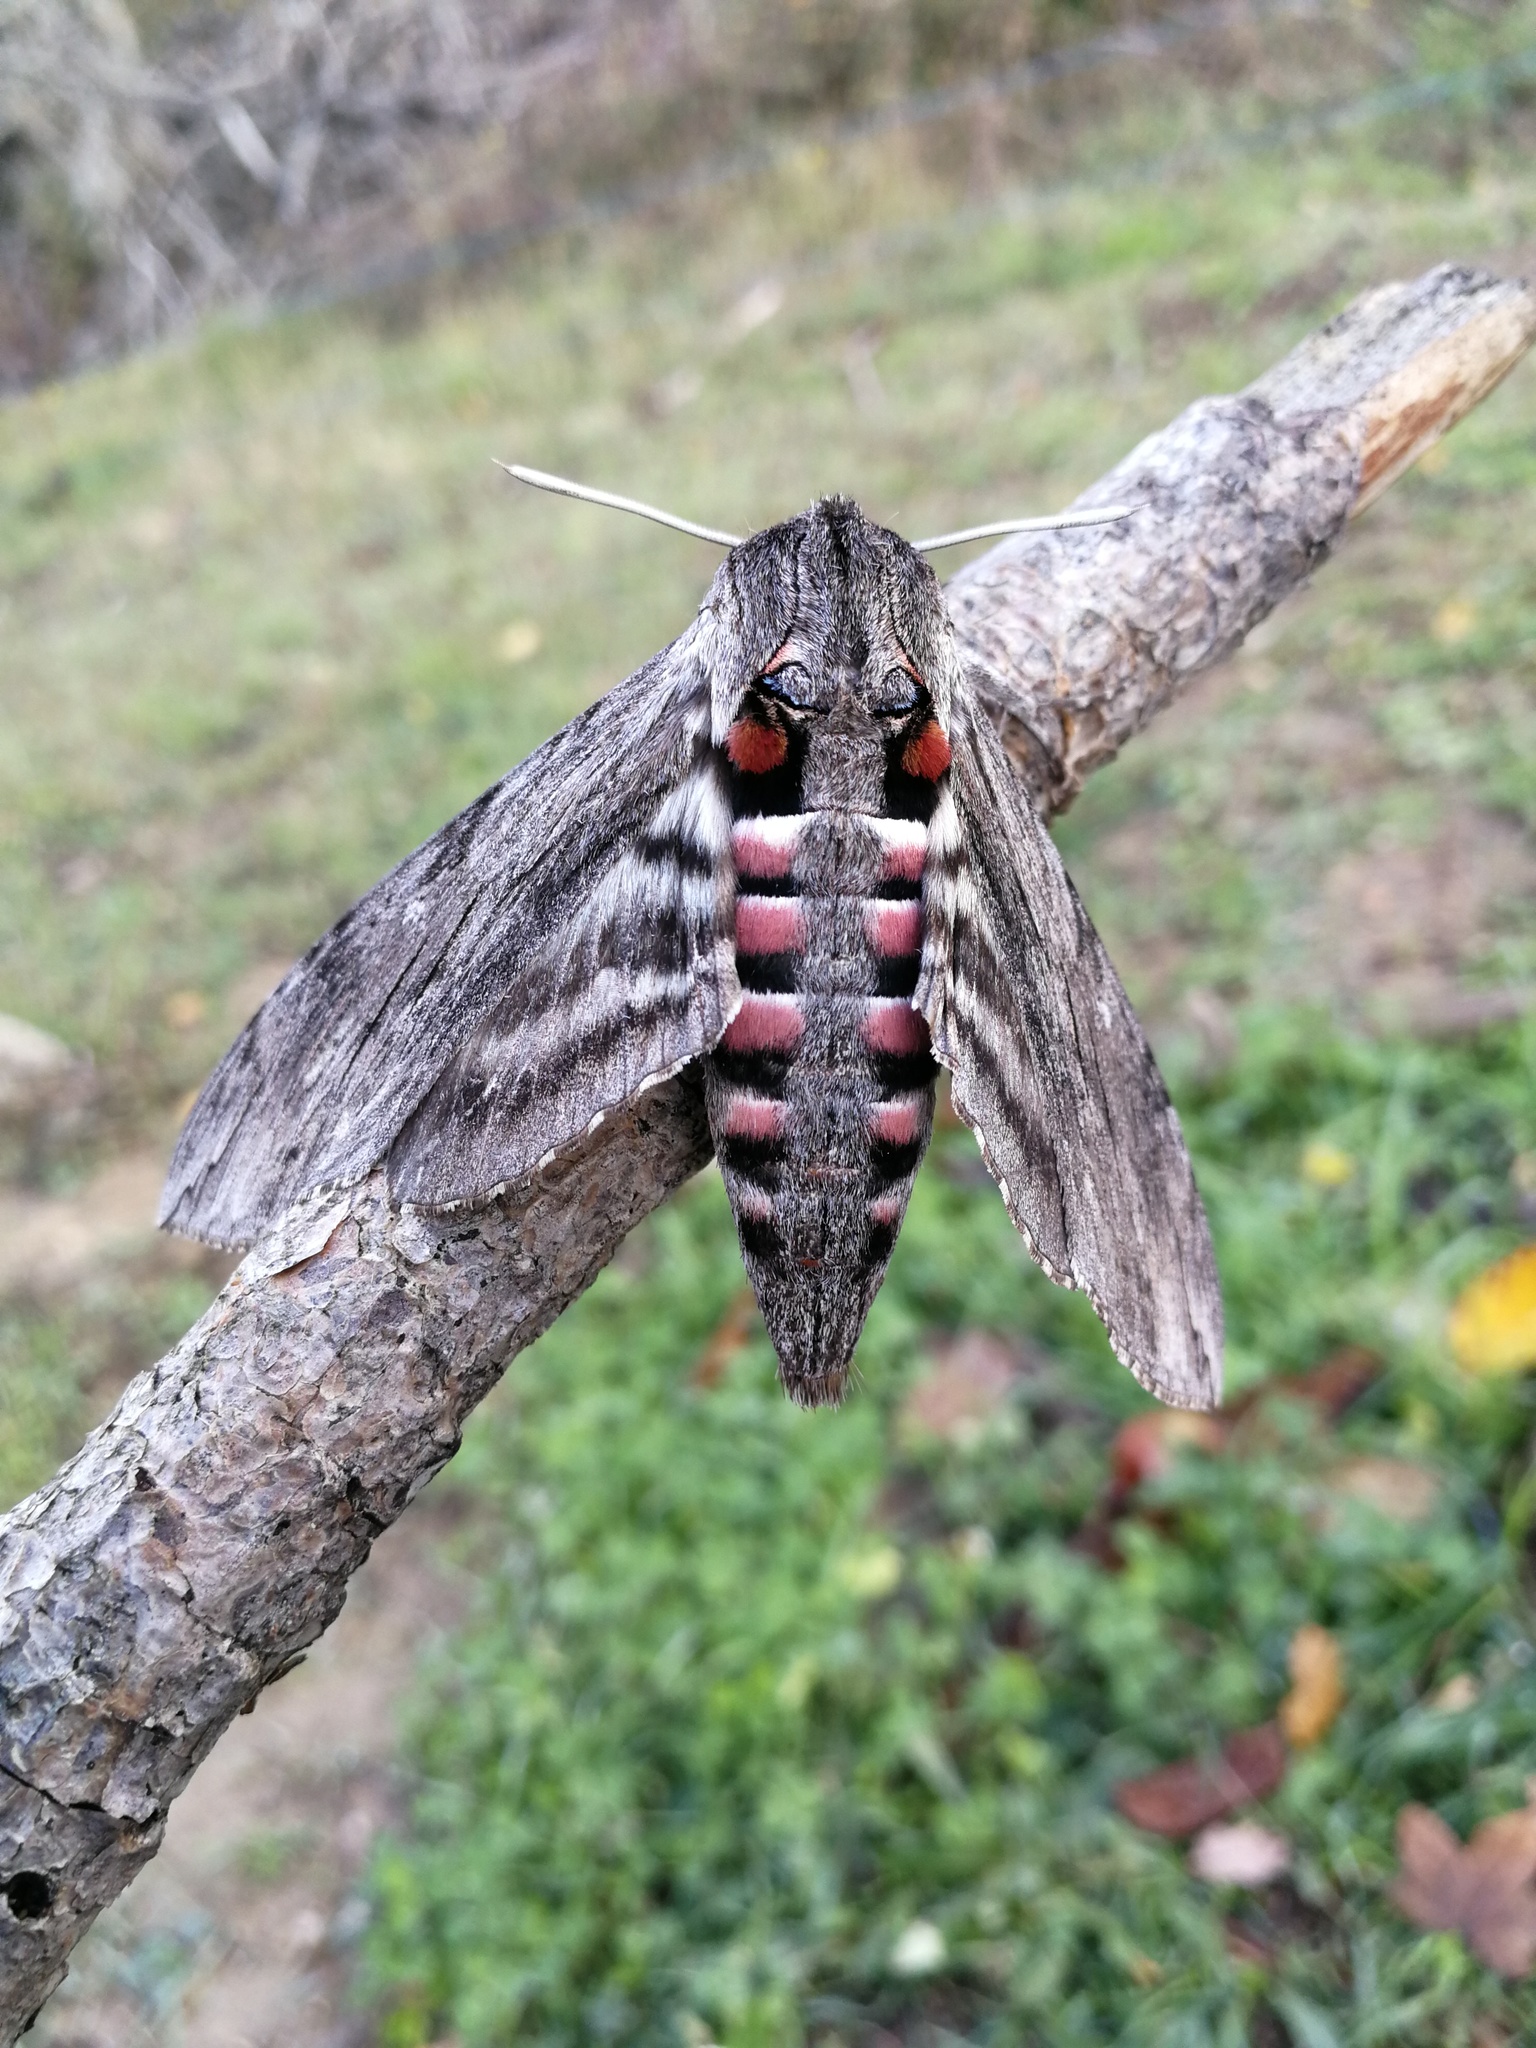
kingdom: Animalia
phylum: Arthropoda
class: Insecta
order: Lepidoptera
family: Sphingidae
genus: Agrius
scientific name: Agrius convolvuli
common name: Convolvulus hawkmoth
